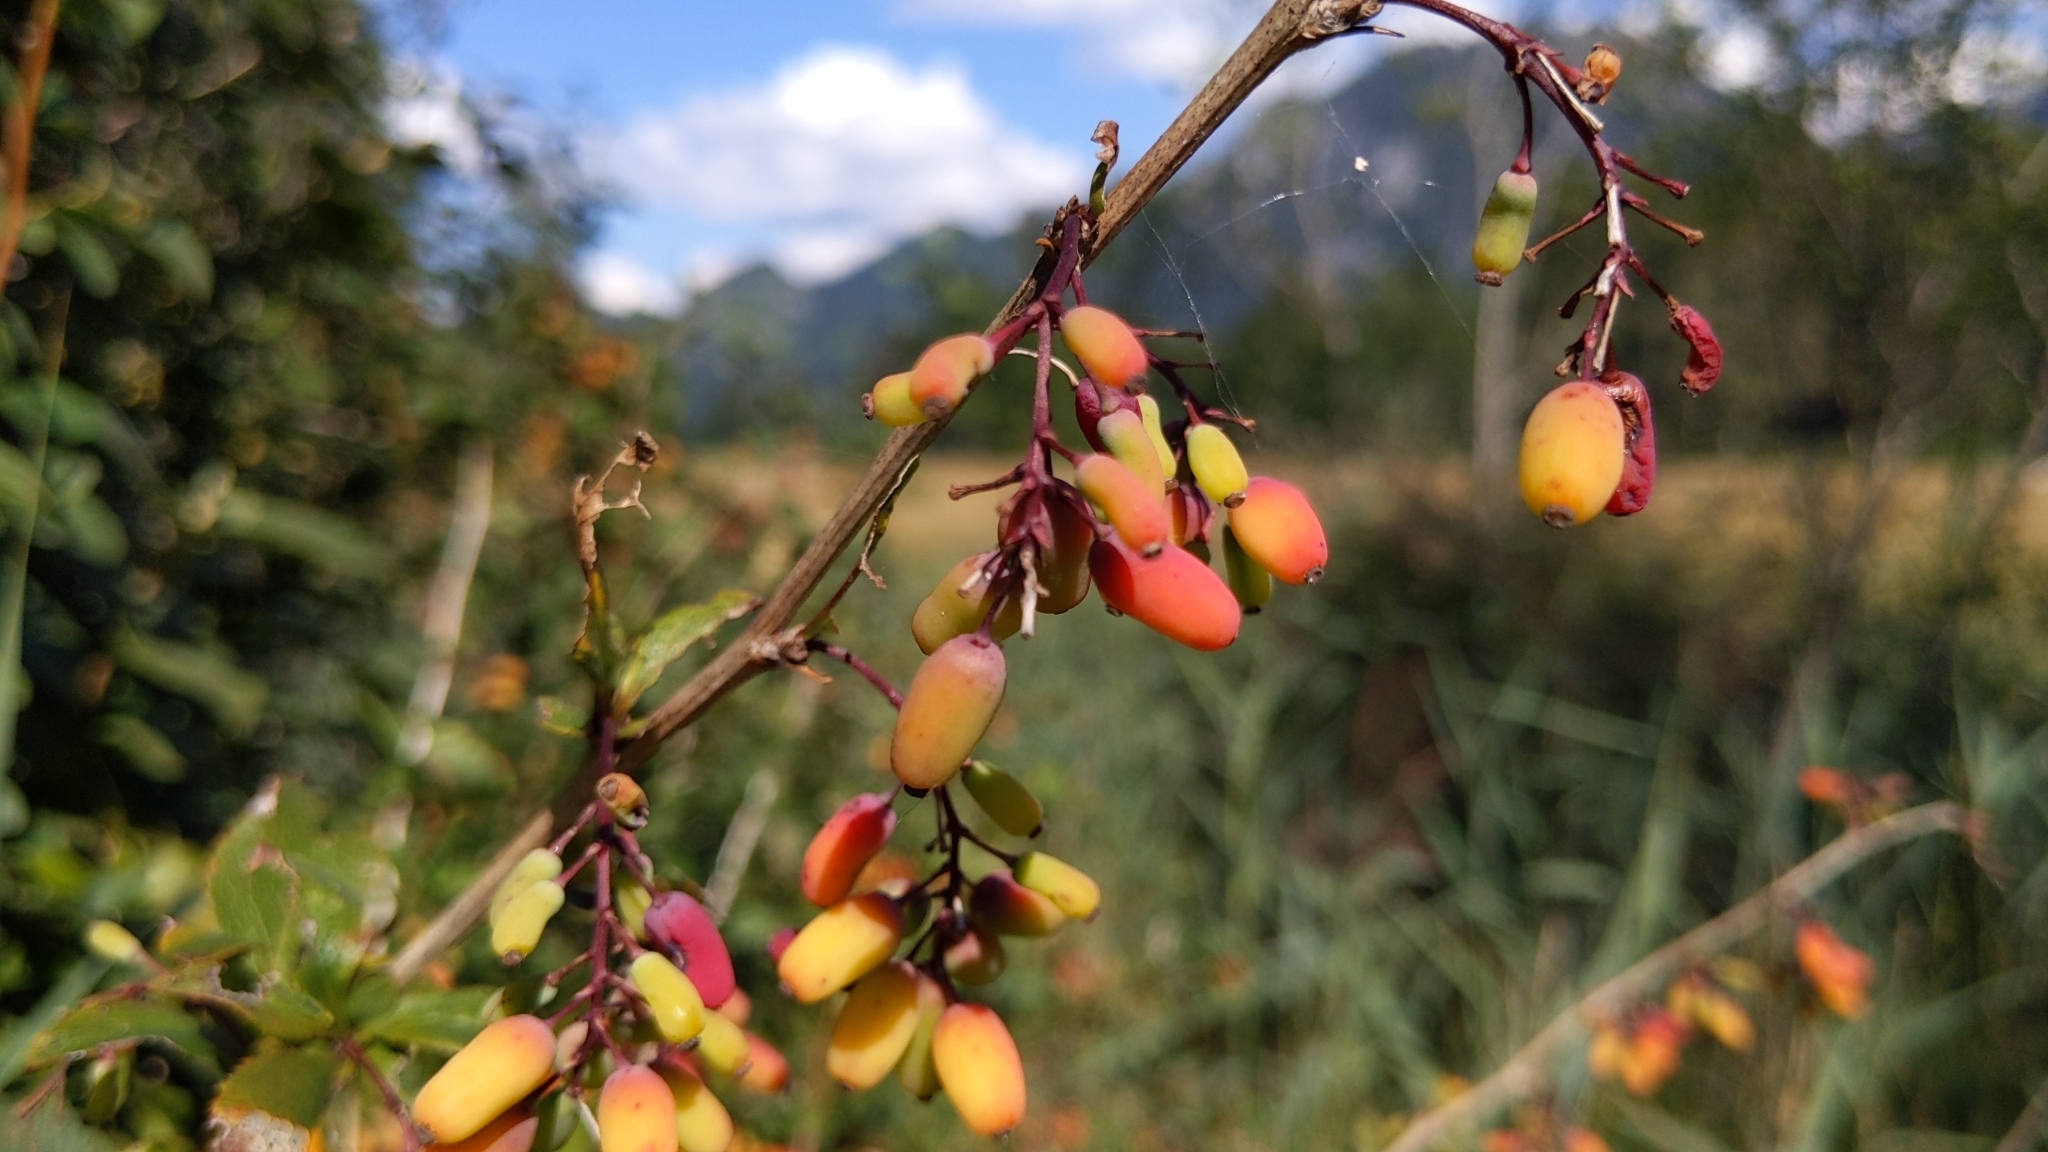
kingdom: Plantae
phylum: Tracheophyta
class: Magnoliopsida
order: Ranunculales
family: Berberidaceae
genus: Berberis
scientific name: Berberis vulgaris
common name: Barberry
